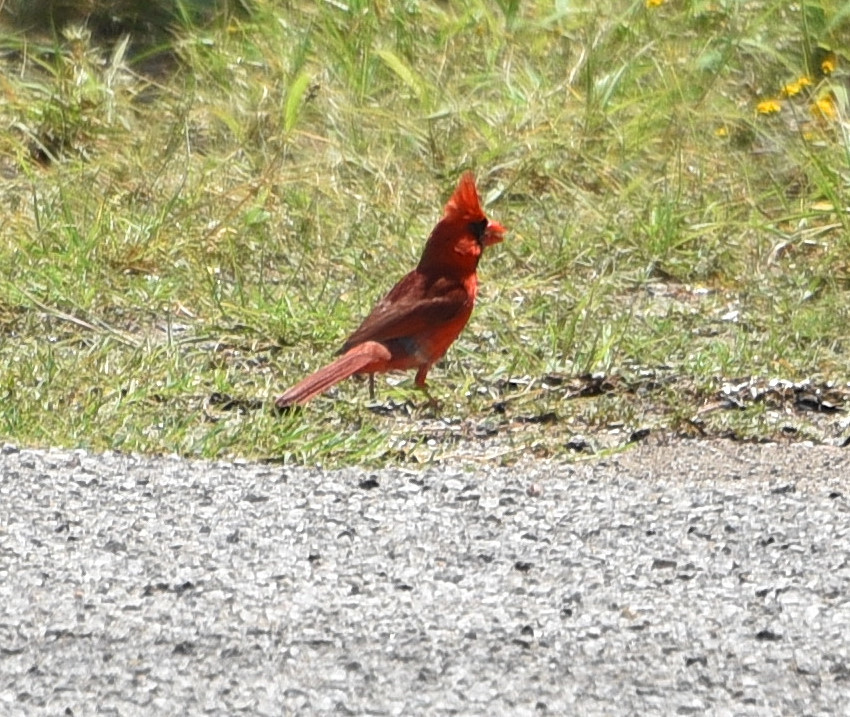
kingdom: Animalia
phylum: Chordata
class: Aves
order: Passeriformes
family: Cardinalidae
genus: Cardinalis
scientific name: Cardinalis cardinalis
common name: Northern cardinal
